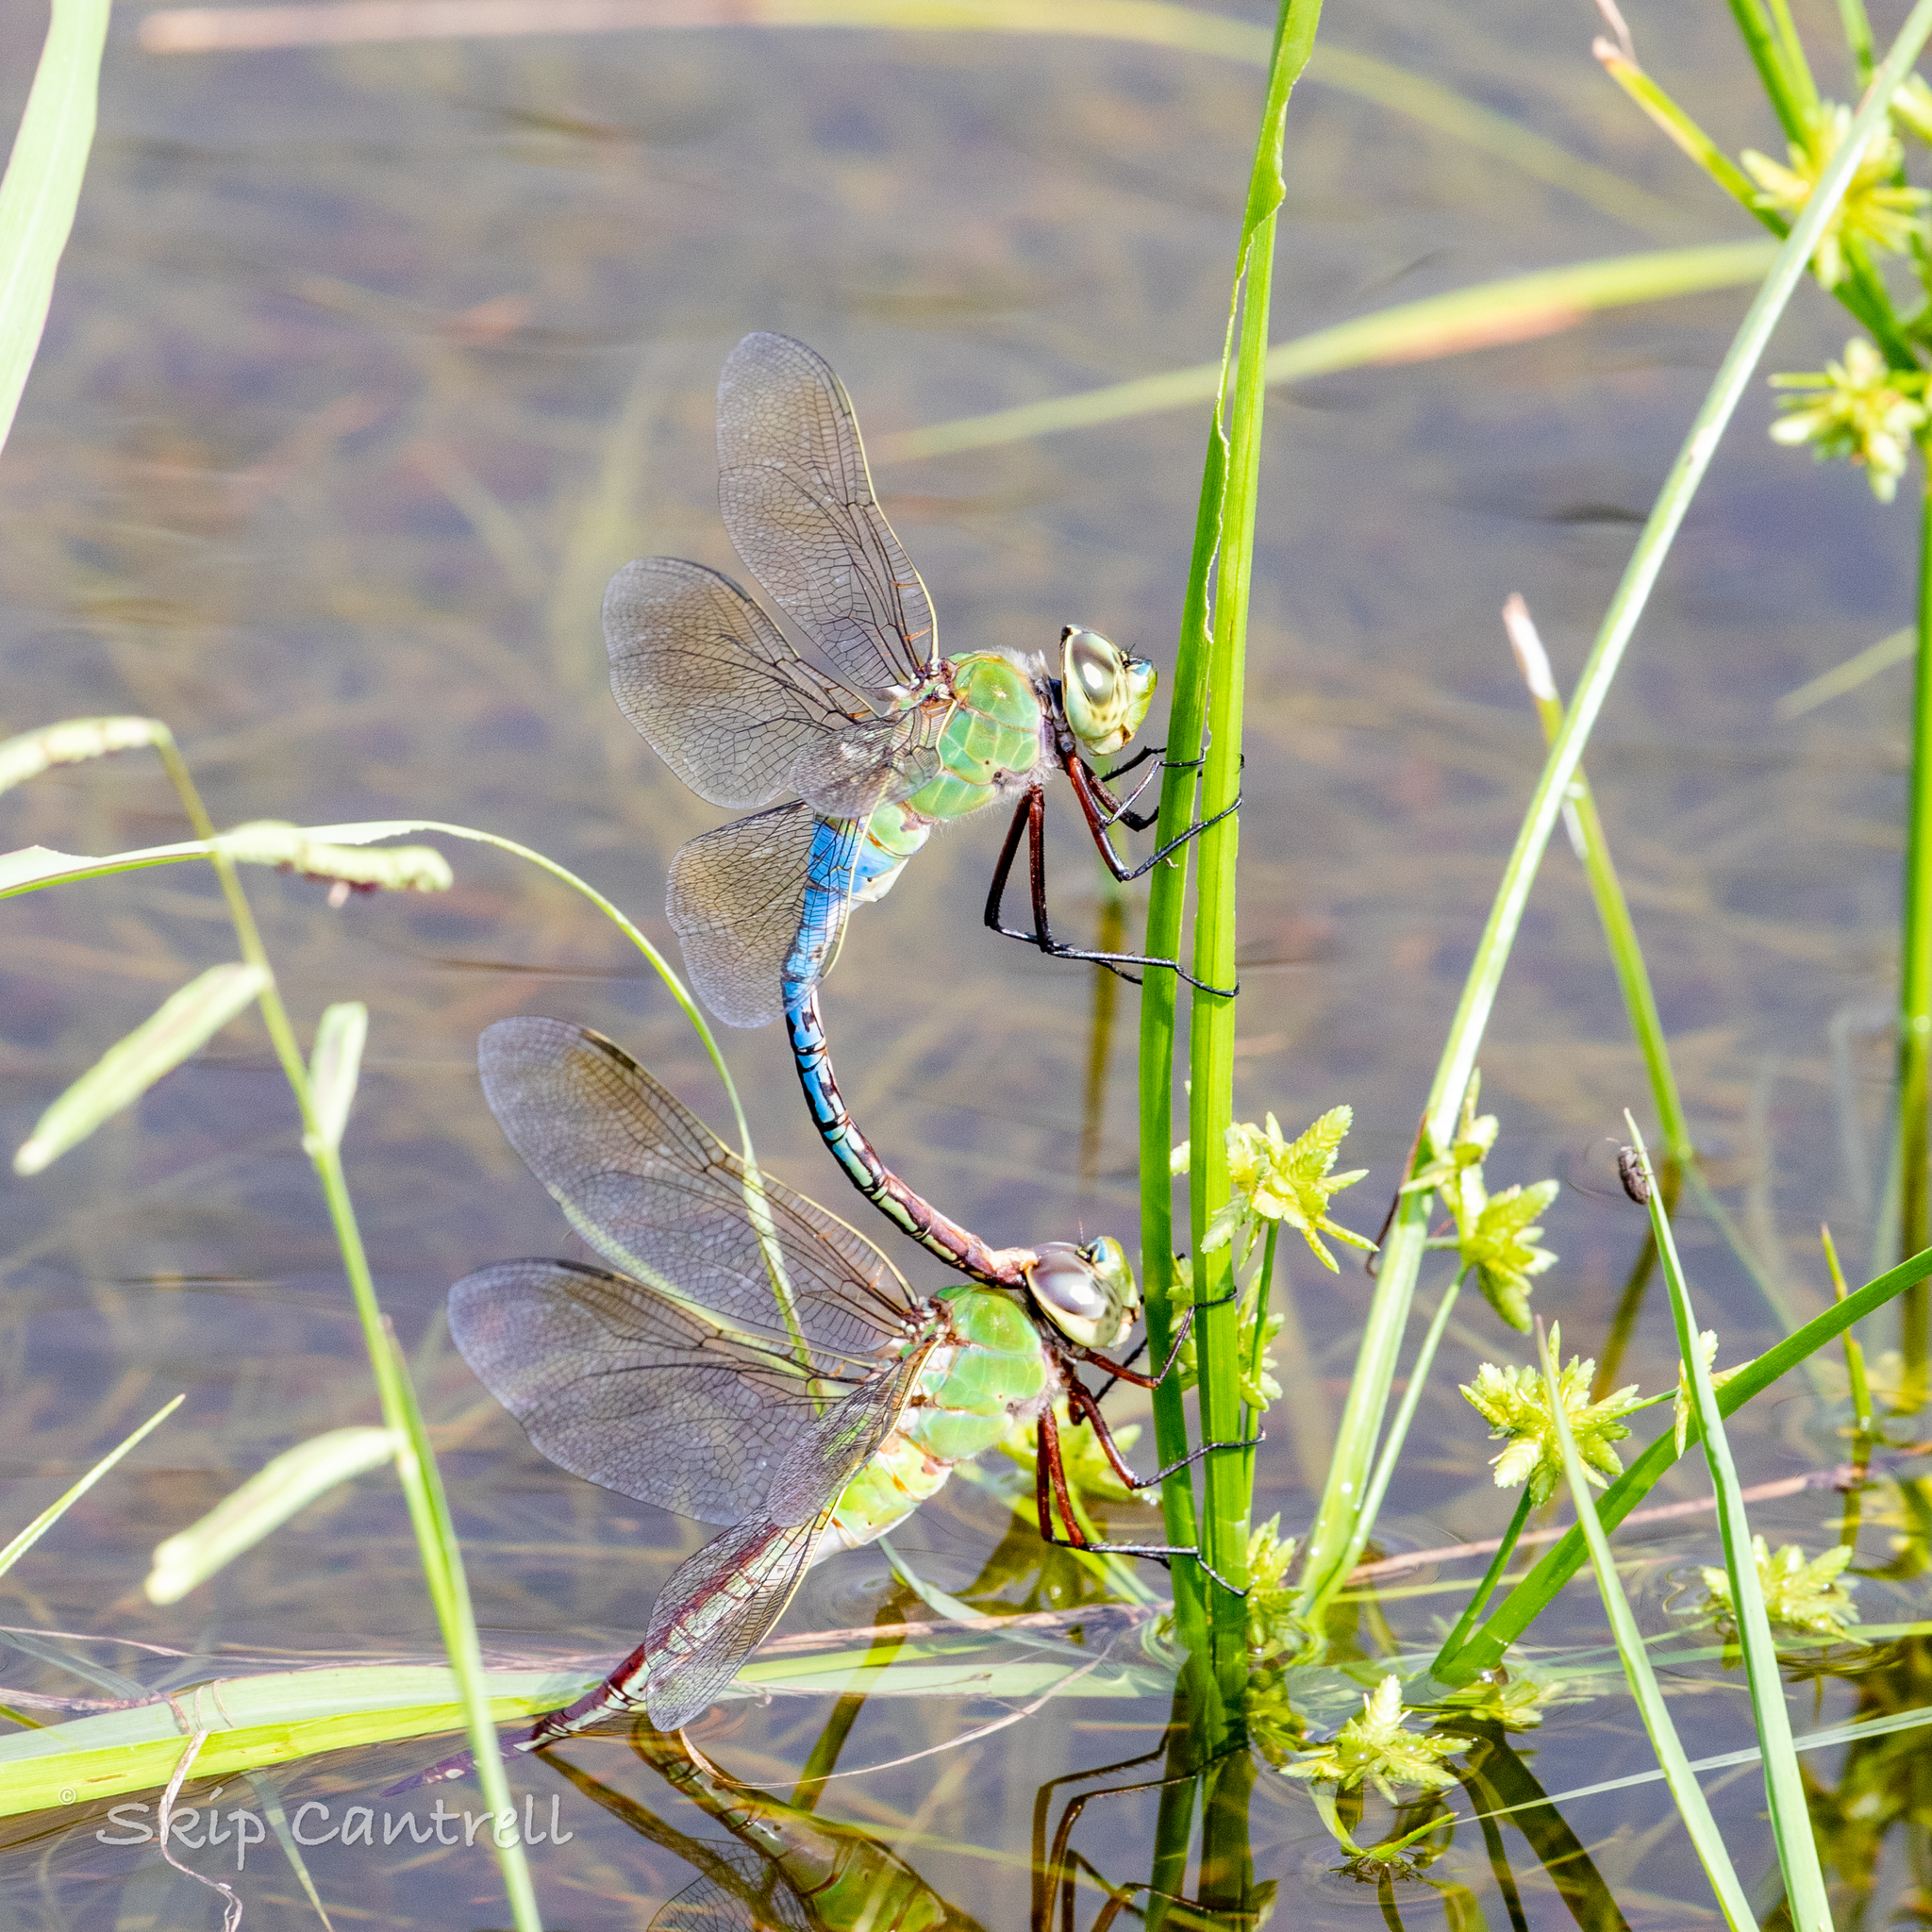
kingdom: Animalia
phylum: Arthropoda
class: Insecta
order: Odonata
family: Aeshnidae
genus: Anax
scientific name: Anax junius
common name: Common green darner
